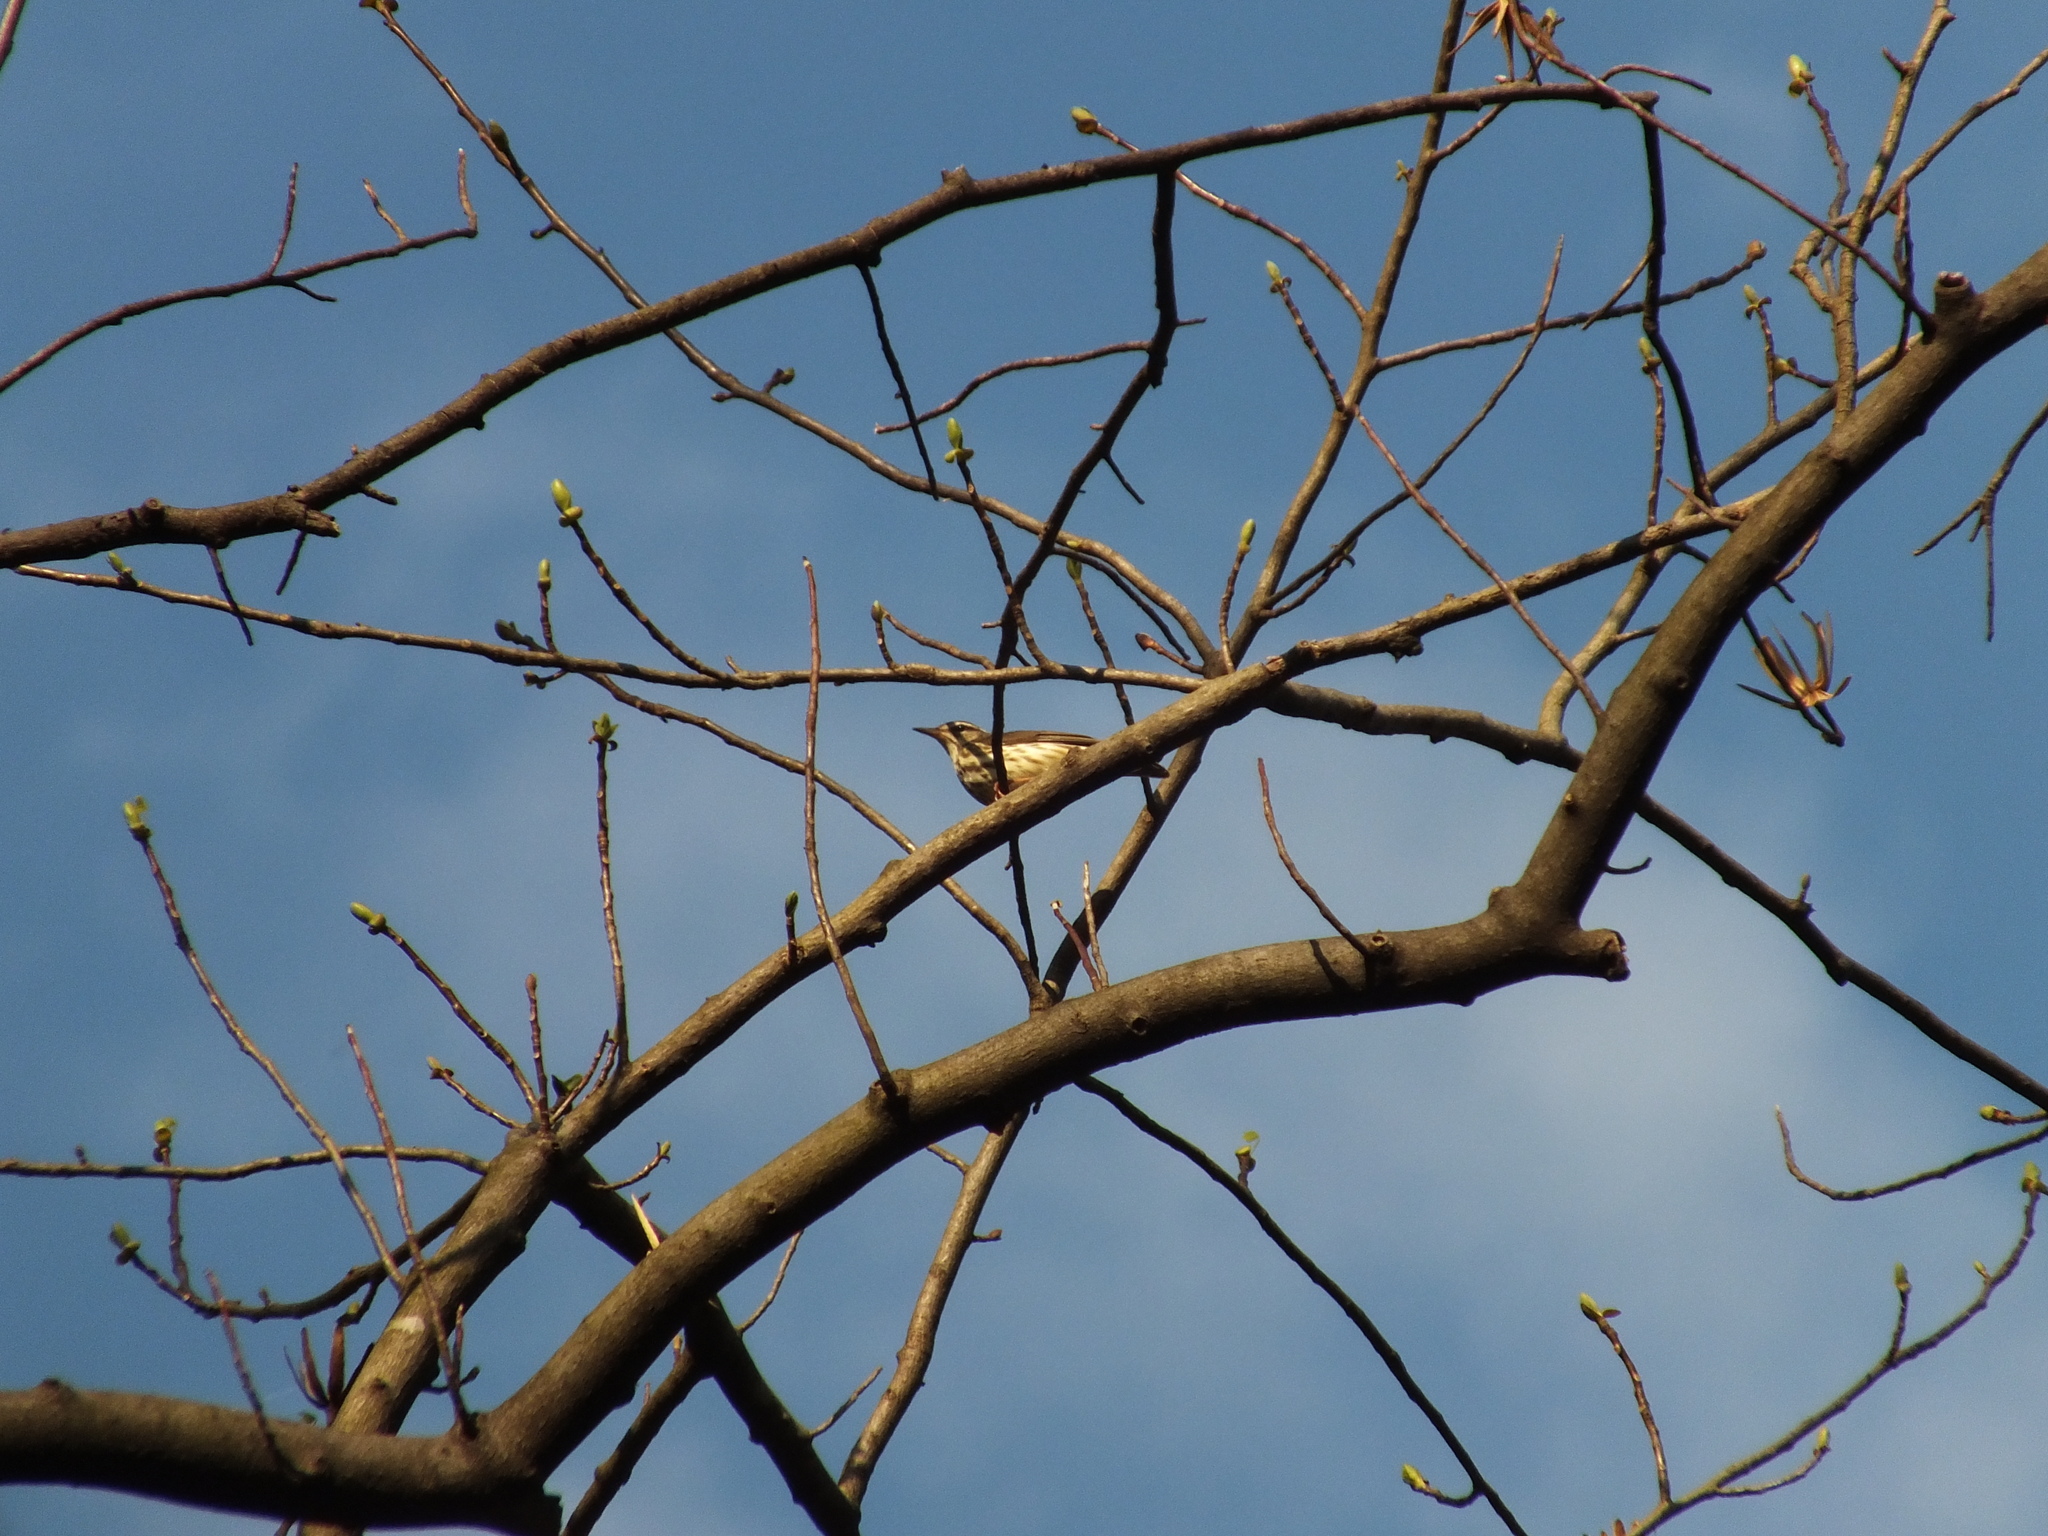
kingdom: Animalia
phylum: Chordata
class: Aves
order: Passeriformes
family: Parulidae
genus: Parkesia
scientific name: Parkesia motacilla
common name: Louisiana waterthrush
